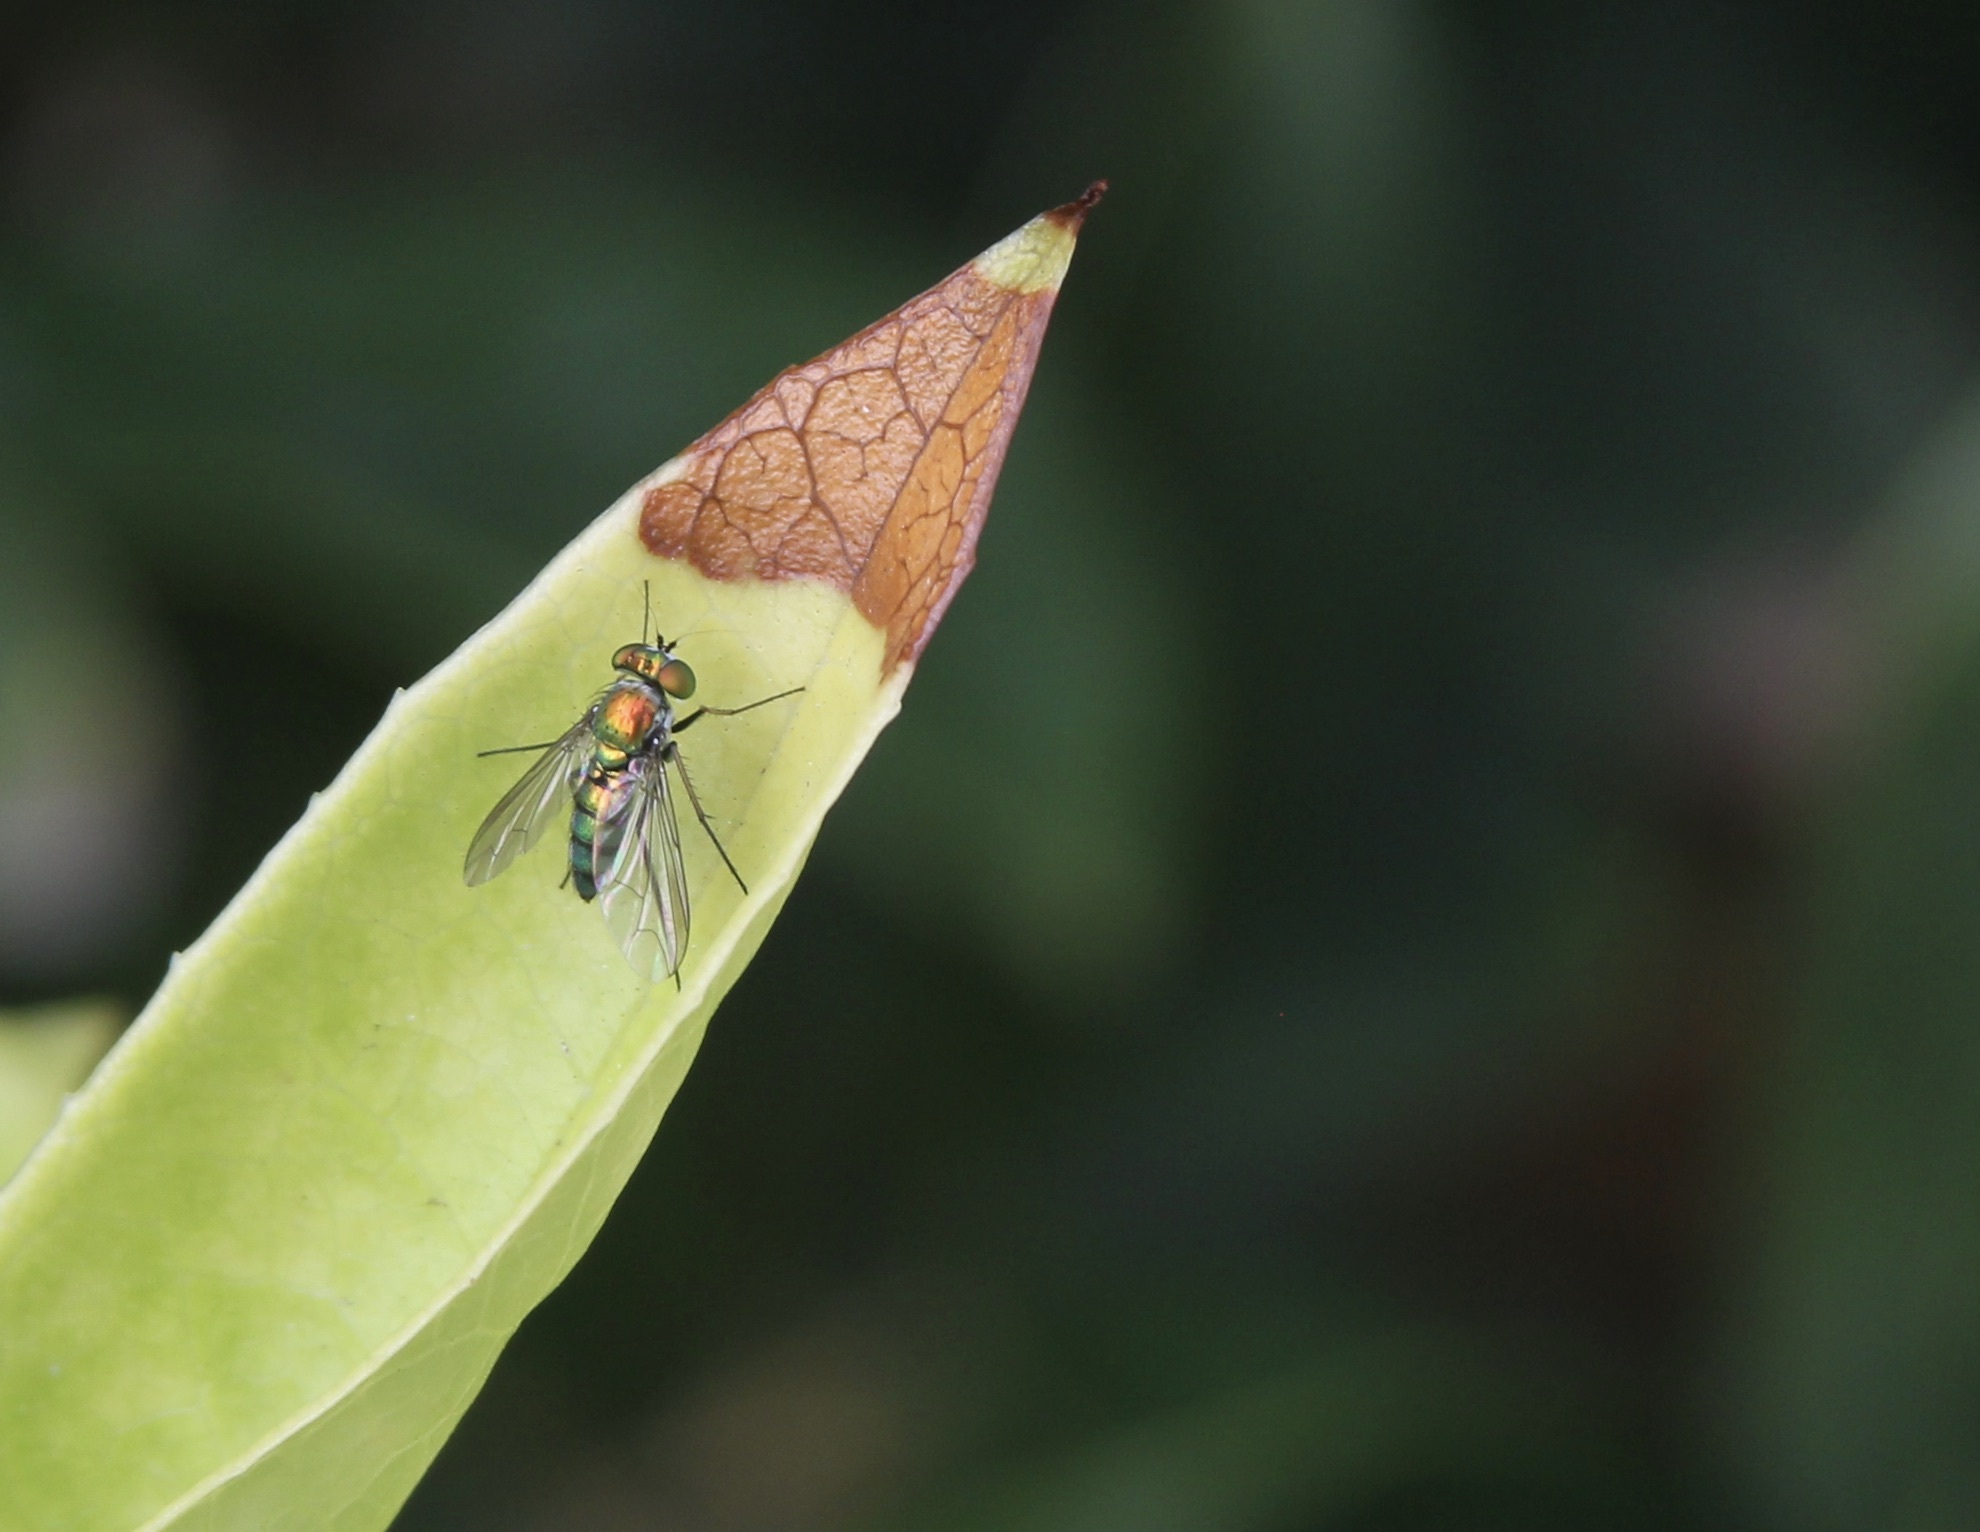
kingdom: Animalia
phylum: Arthropoda
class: Insecta
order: Diptera
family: Dolichopodidae
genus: Condylostylus
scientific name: Condylostylus longicornis
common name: Long-legged fly
